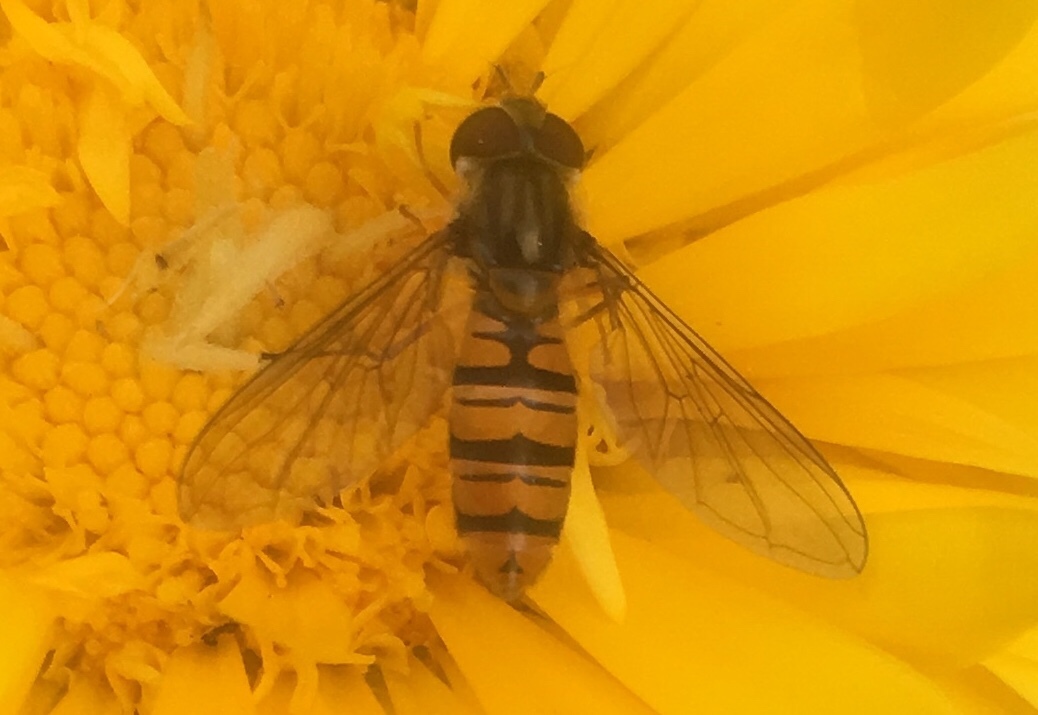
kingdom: Animalia
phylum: Arthropoda
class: Insecta
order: Diptera
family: Syrphidae
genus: Episyrphus
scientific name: Episyrphus balteatus
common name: Marmalade hoverfly
